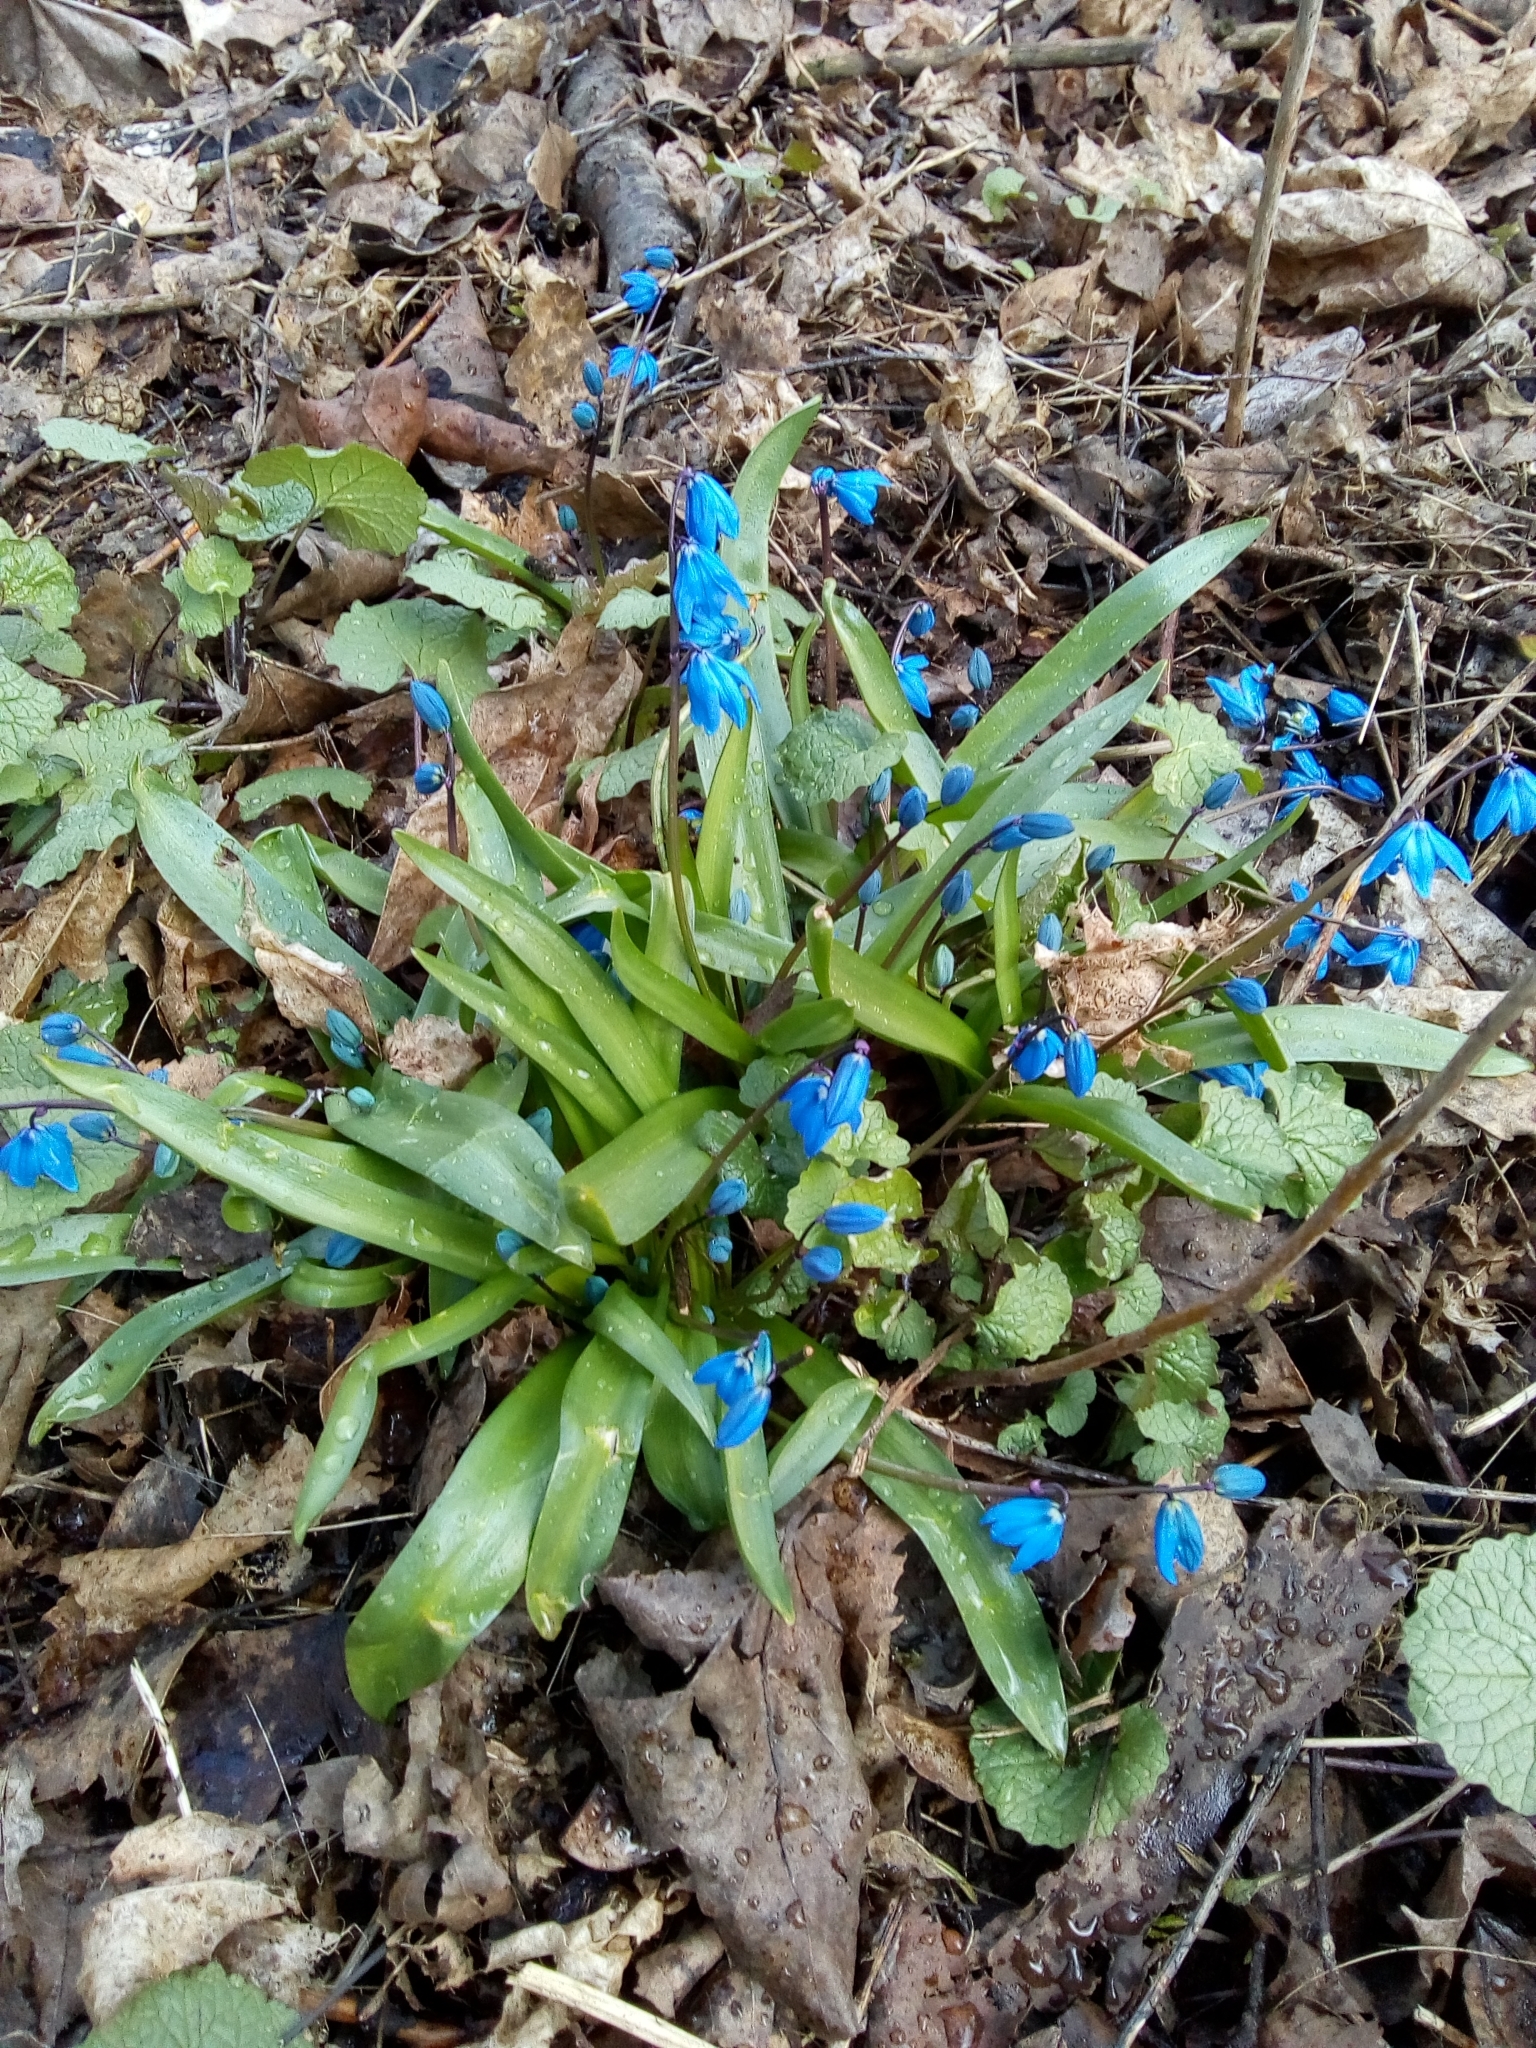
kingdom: Plantae
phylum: Tracheophyta
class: Liliopsida
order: Asparagales
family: Asparagaceae
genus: Scilla
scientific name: Scilla siberica
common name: Siberian squill
